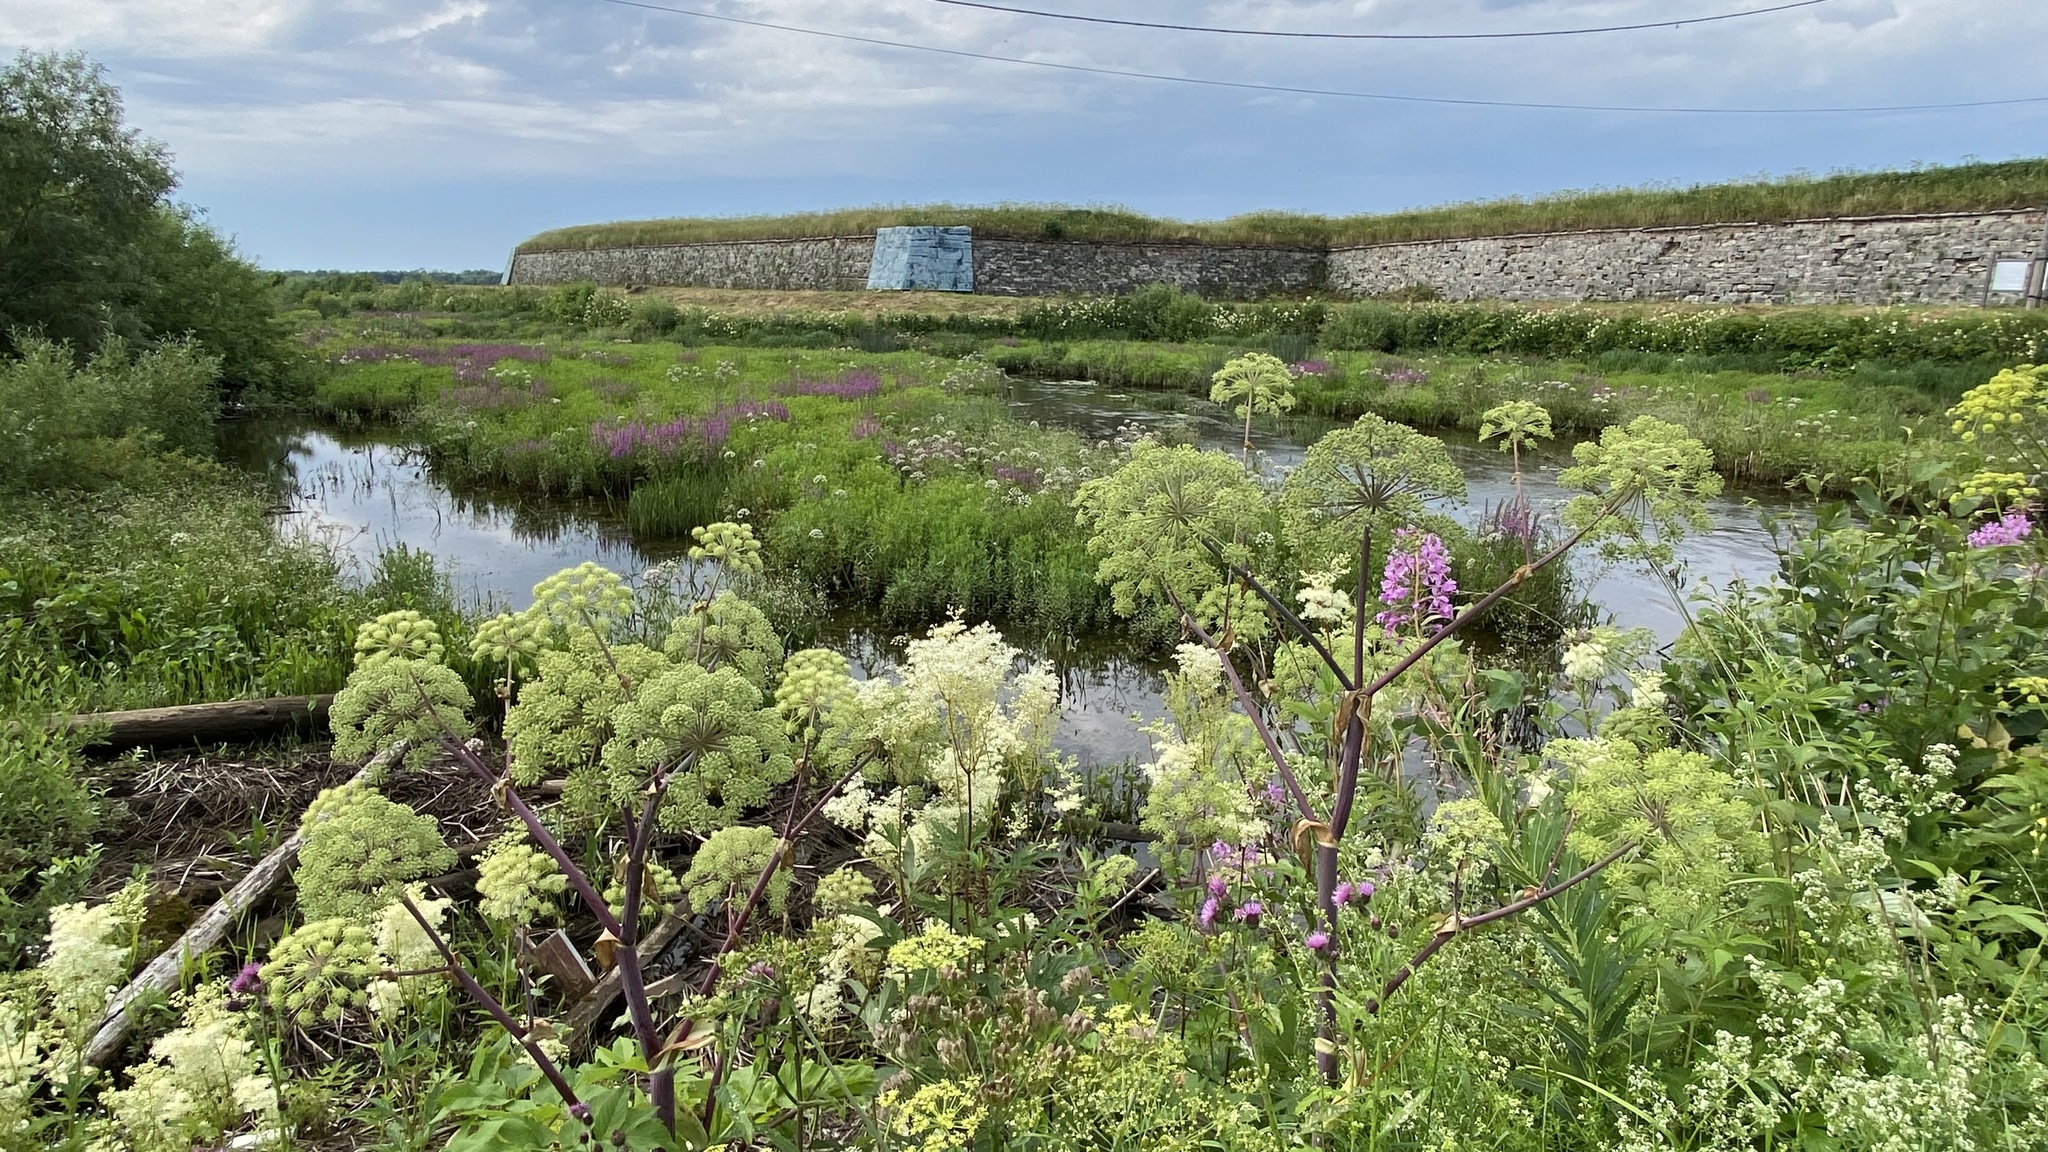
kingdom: Plantae
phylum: Tracheophyta
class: Magnoliopsida
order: Apiales
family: Apiaceae
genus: Angelica
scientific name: Angelica archangelica
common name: Garden angelica
